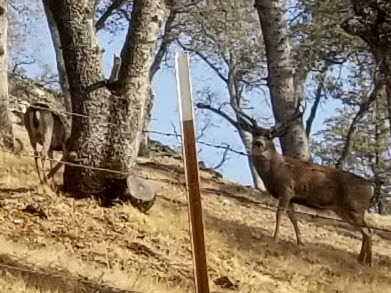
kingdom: Animalia
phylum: Chordata
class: Mammalia
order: Artiodactyla
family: Cervidae
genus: Odocoileus
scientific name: Odocoileus hemionus
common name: Mule deer
